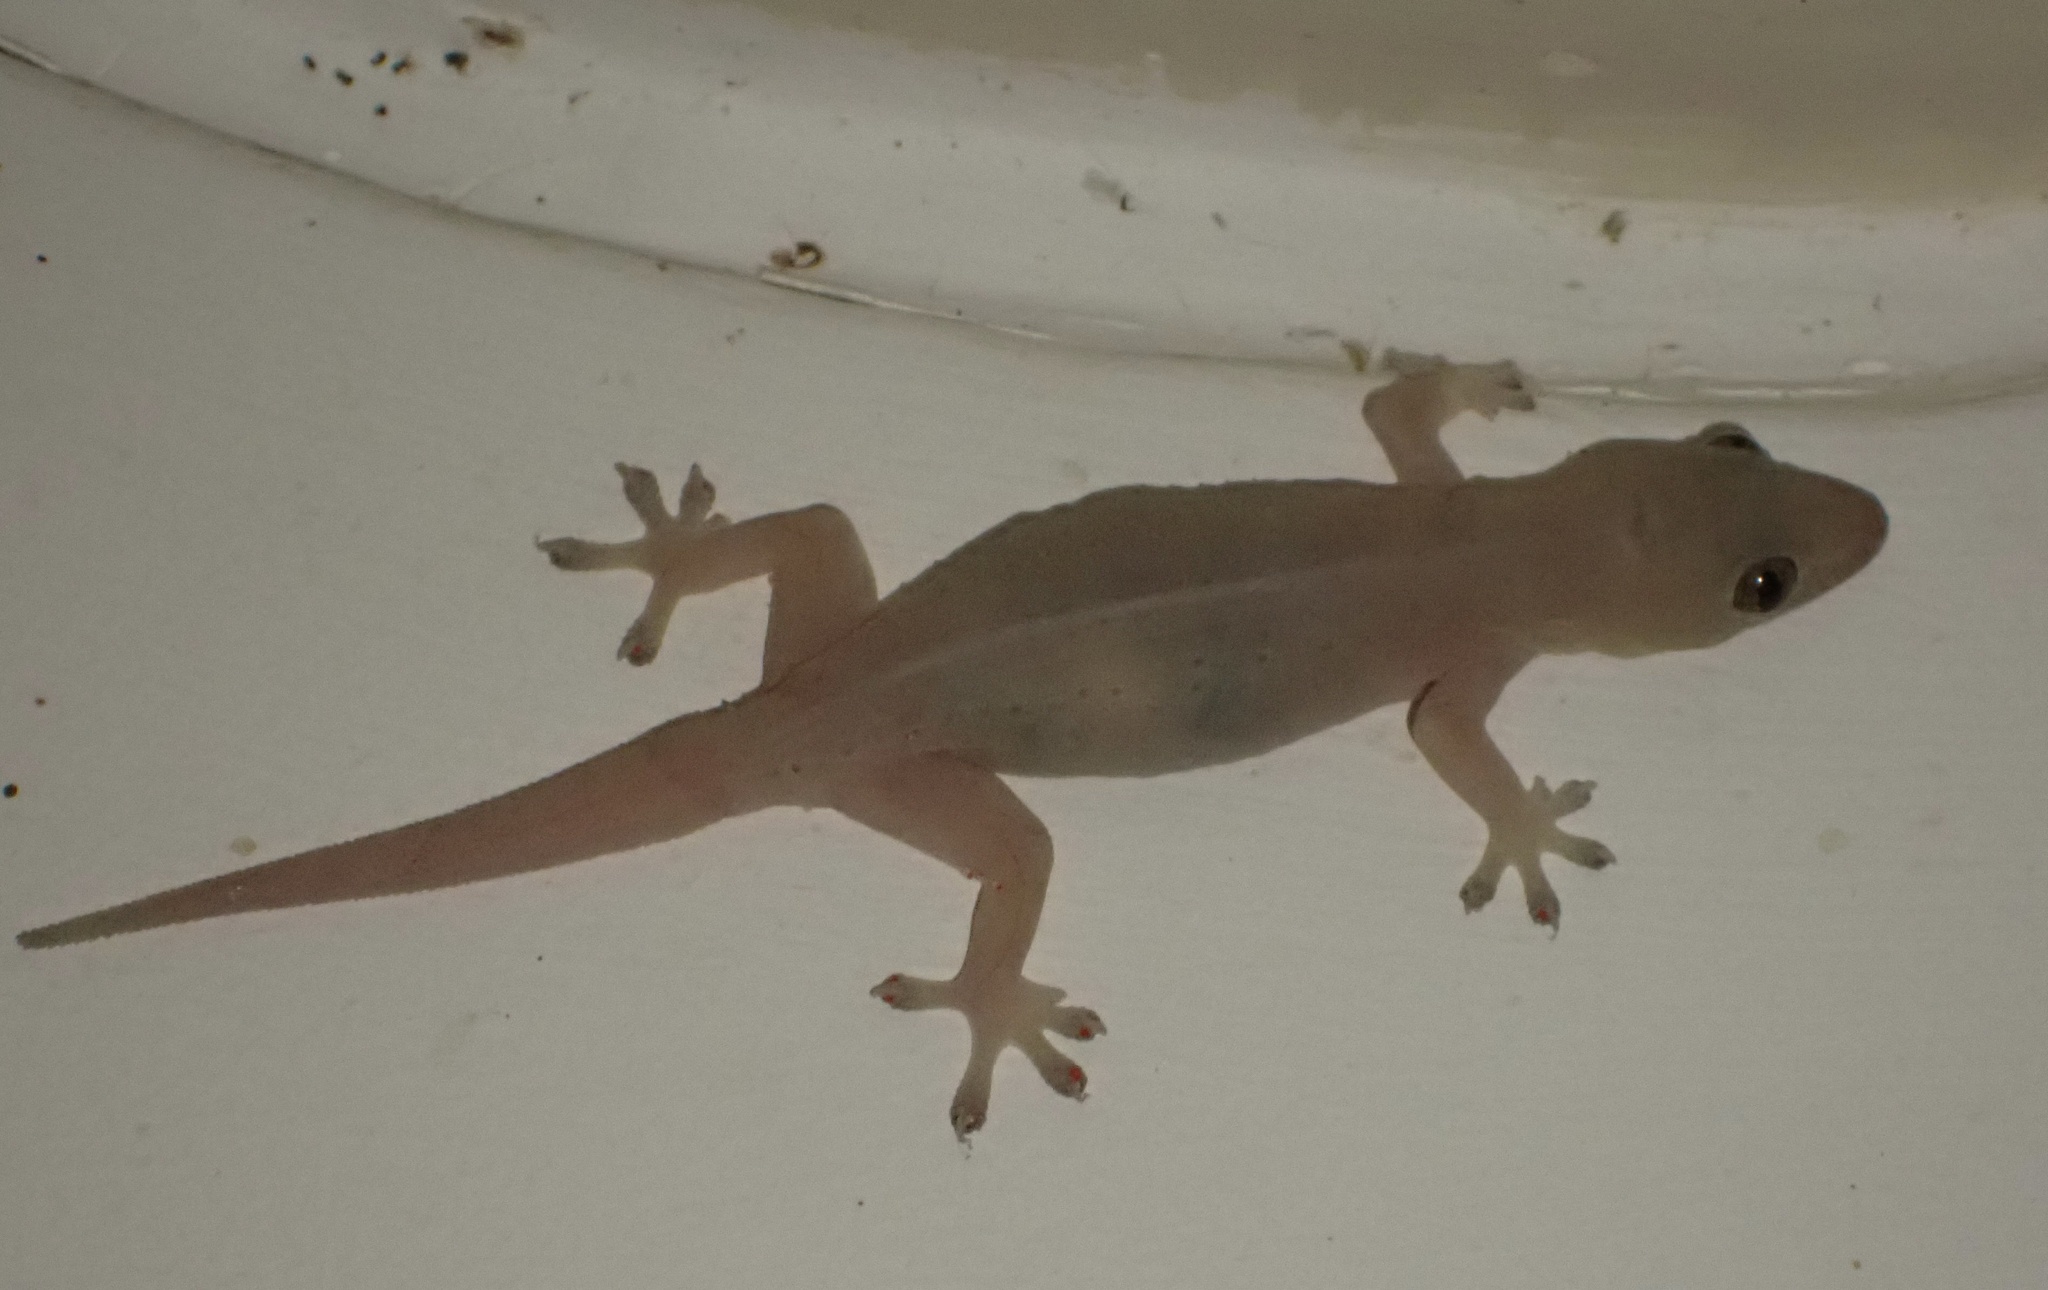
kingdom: Animalia
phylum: Chordata
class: Squamata
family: Gekkonidae
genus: Gehyra
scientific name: Gehyra mutilata
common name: Stump-toed gecko
